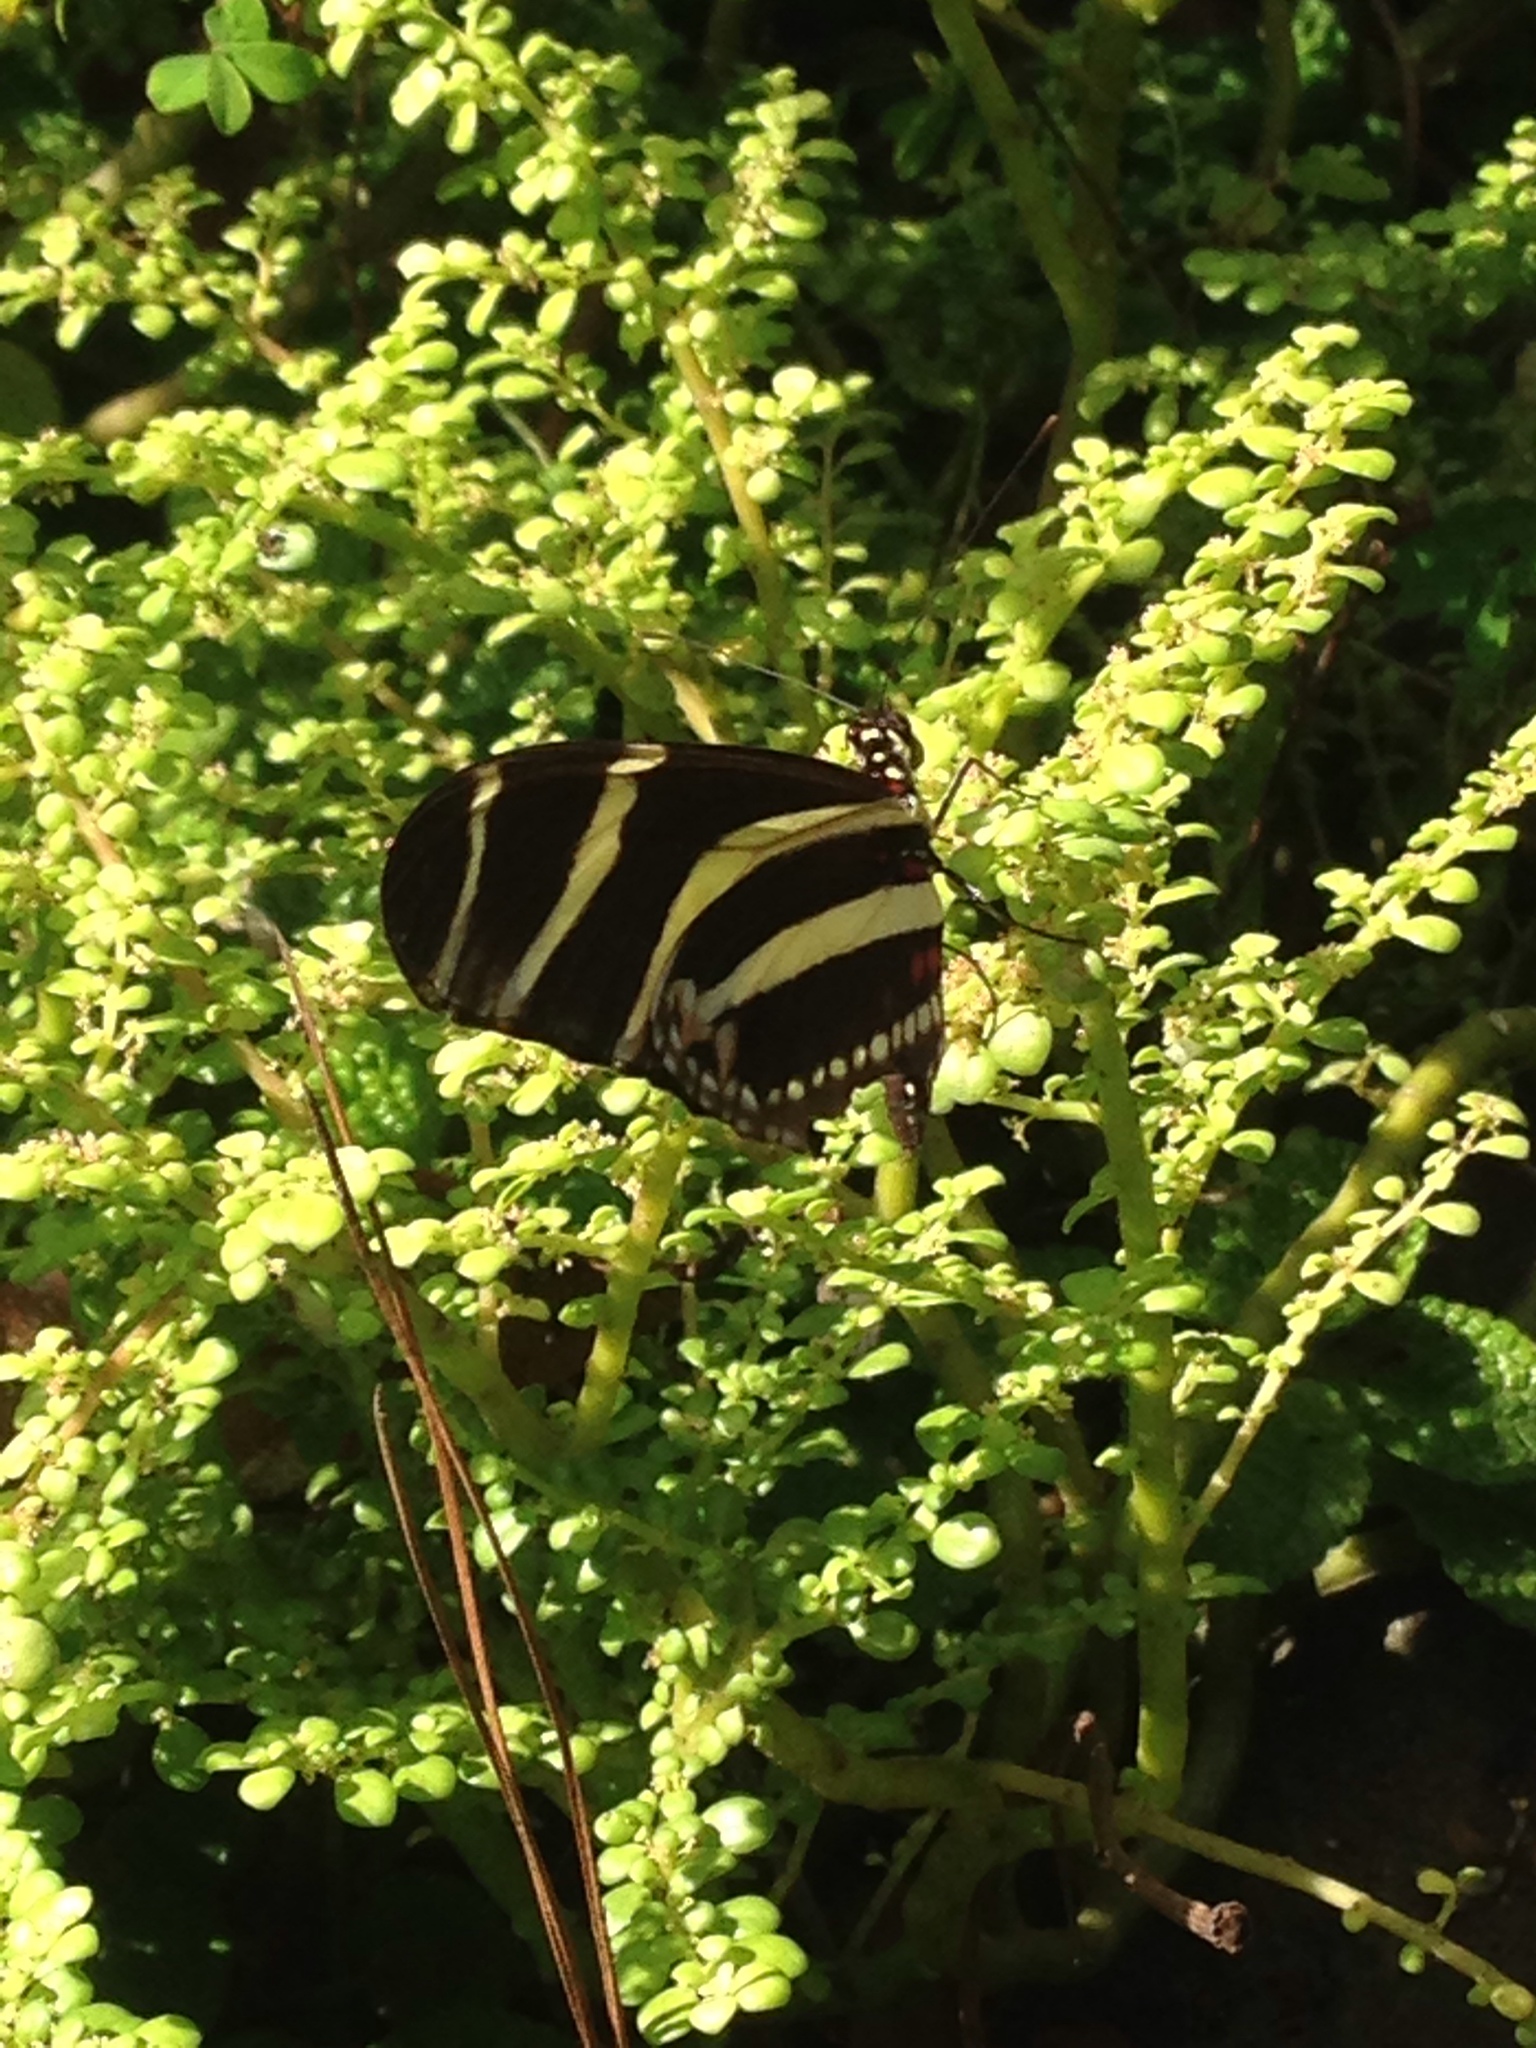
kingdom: Animalia
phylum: Arthropoda
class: Insecta
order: Lepidoptera
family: Nymphalidae
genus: Heliconius
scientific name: Heliconius charithonia
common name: Zebra long wing
